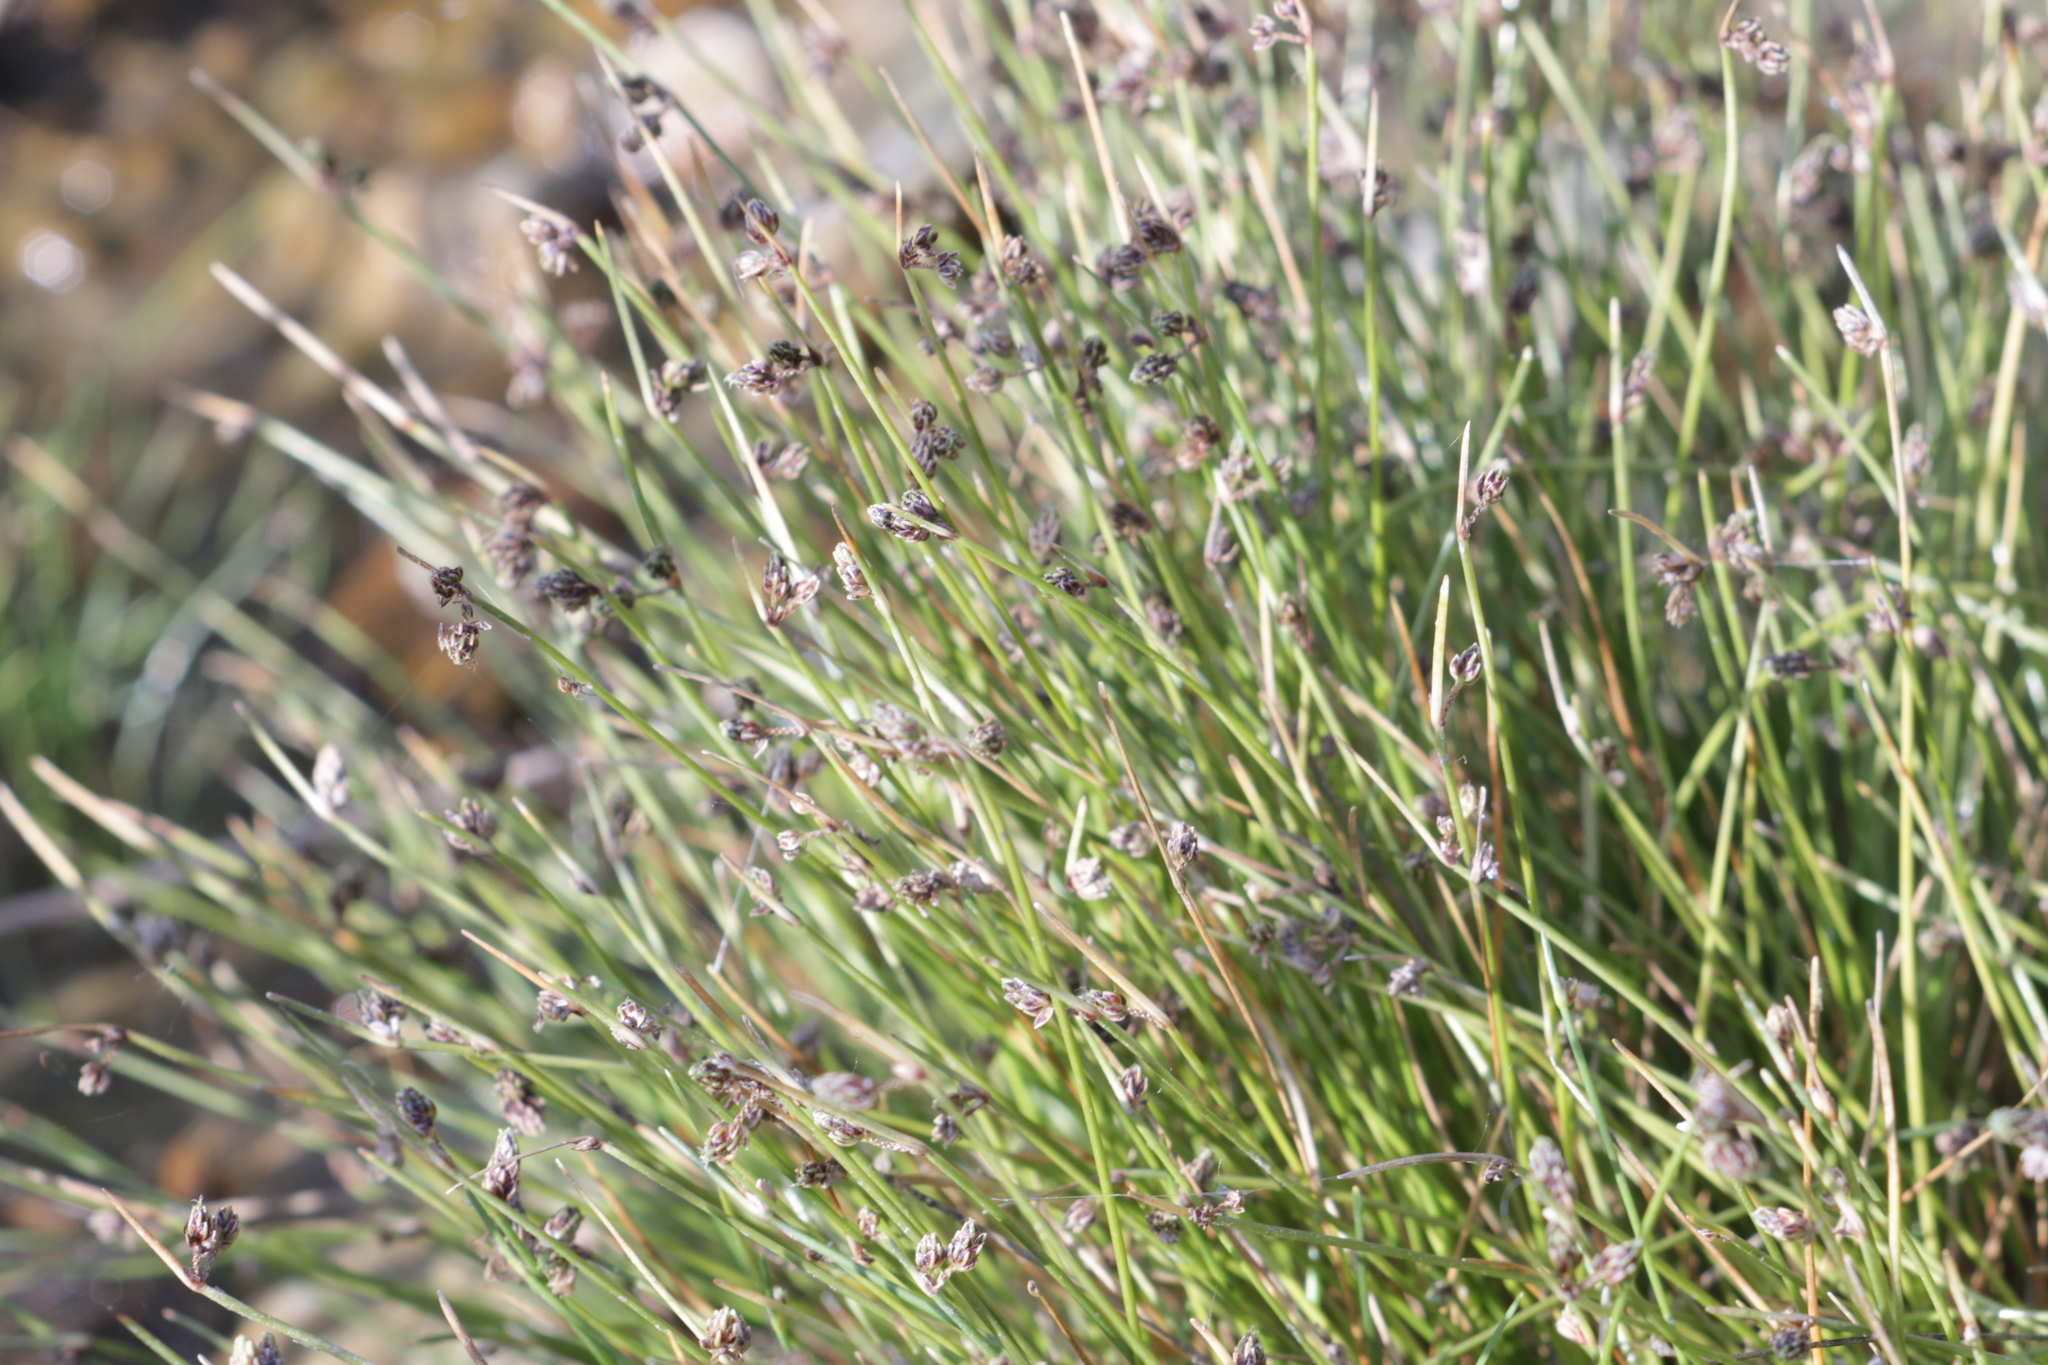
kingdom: Plantae
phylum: Tracheophyta
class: Liliopsida
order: Poales
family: Cyperaceae
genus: Isolepis
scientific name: Isolepis setacea
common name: Bristle club-rush
